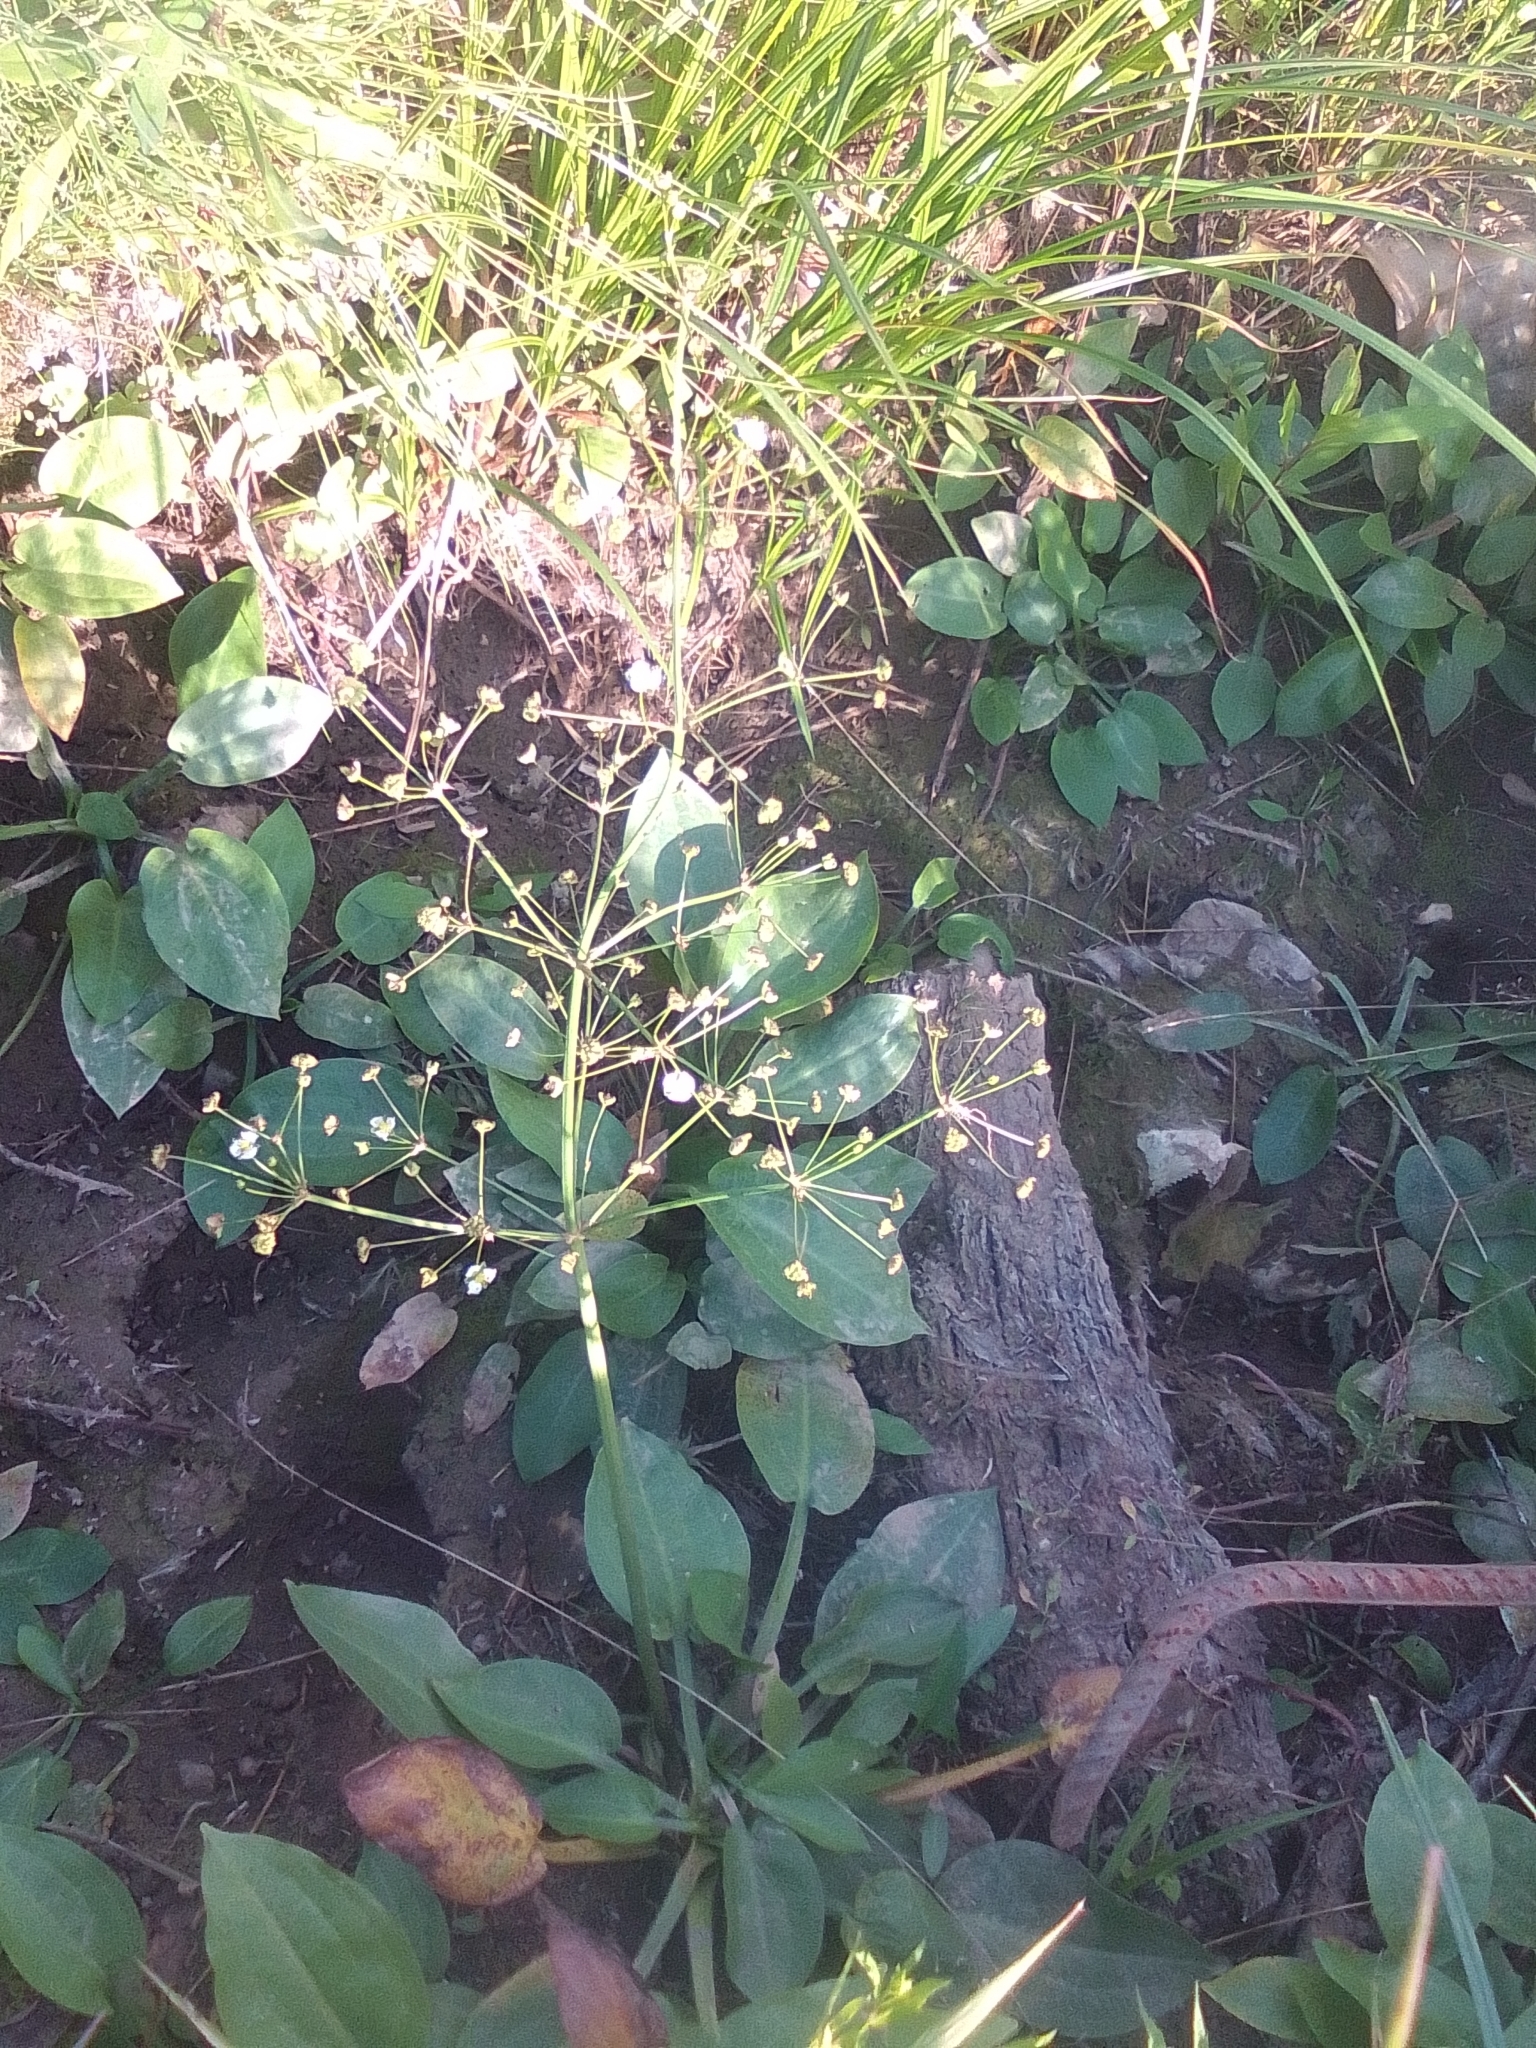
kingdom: Plantae
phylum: Tracheophyta
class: Liliopsida
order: Alismatales
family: Alismataceae
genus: Alisma
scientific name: Alisma plantago-aquatica
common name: Water-plantain
